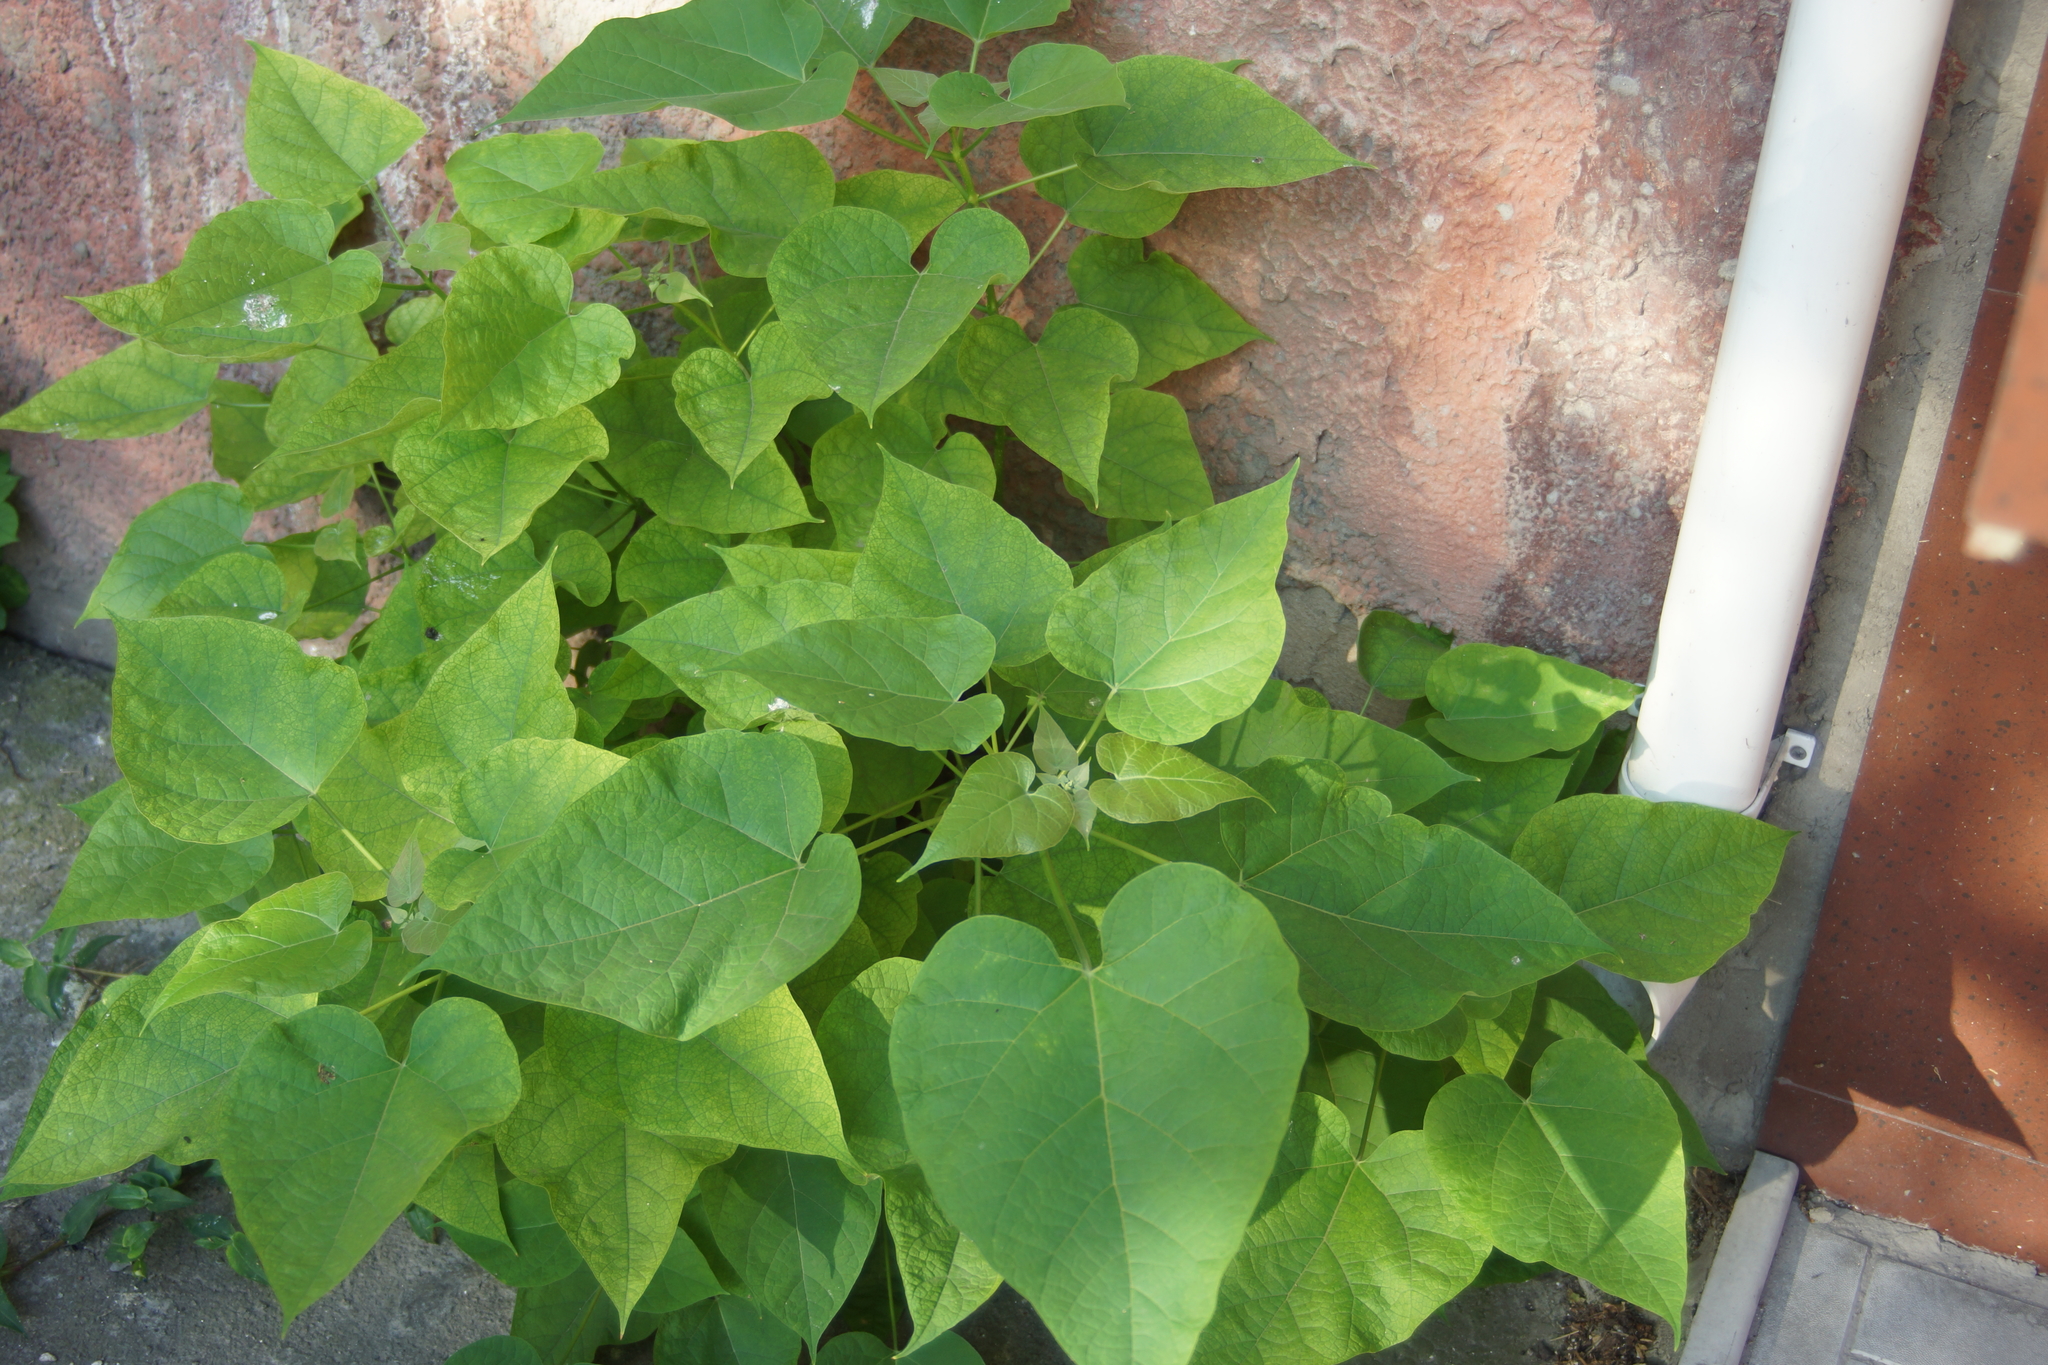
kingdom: Plantae
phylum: Tracheophyta
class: Magnoliopsida
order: Lamiales
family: Bignoniaceae
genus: Catalpa
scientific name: Catalpa bignonioides
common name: Southern catalpa
